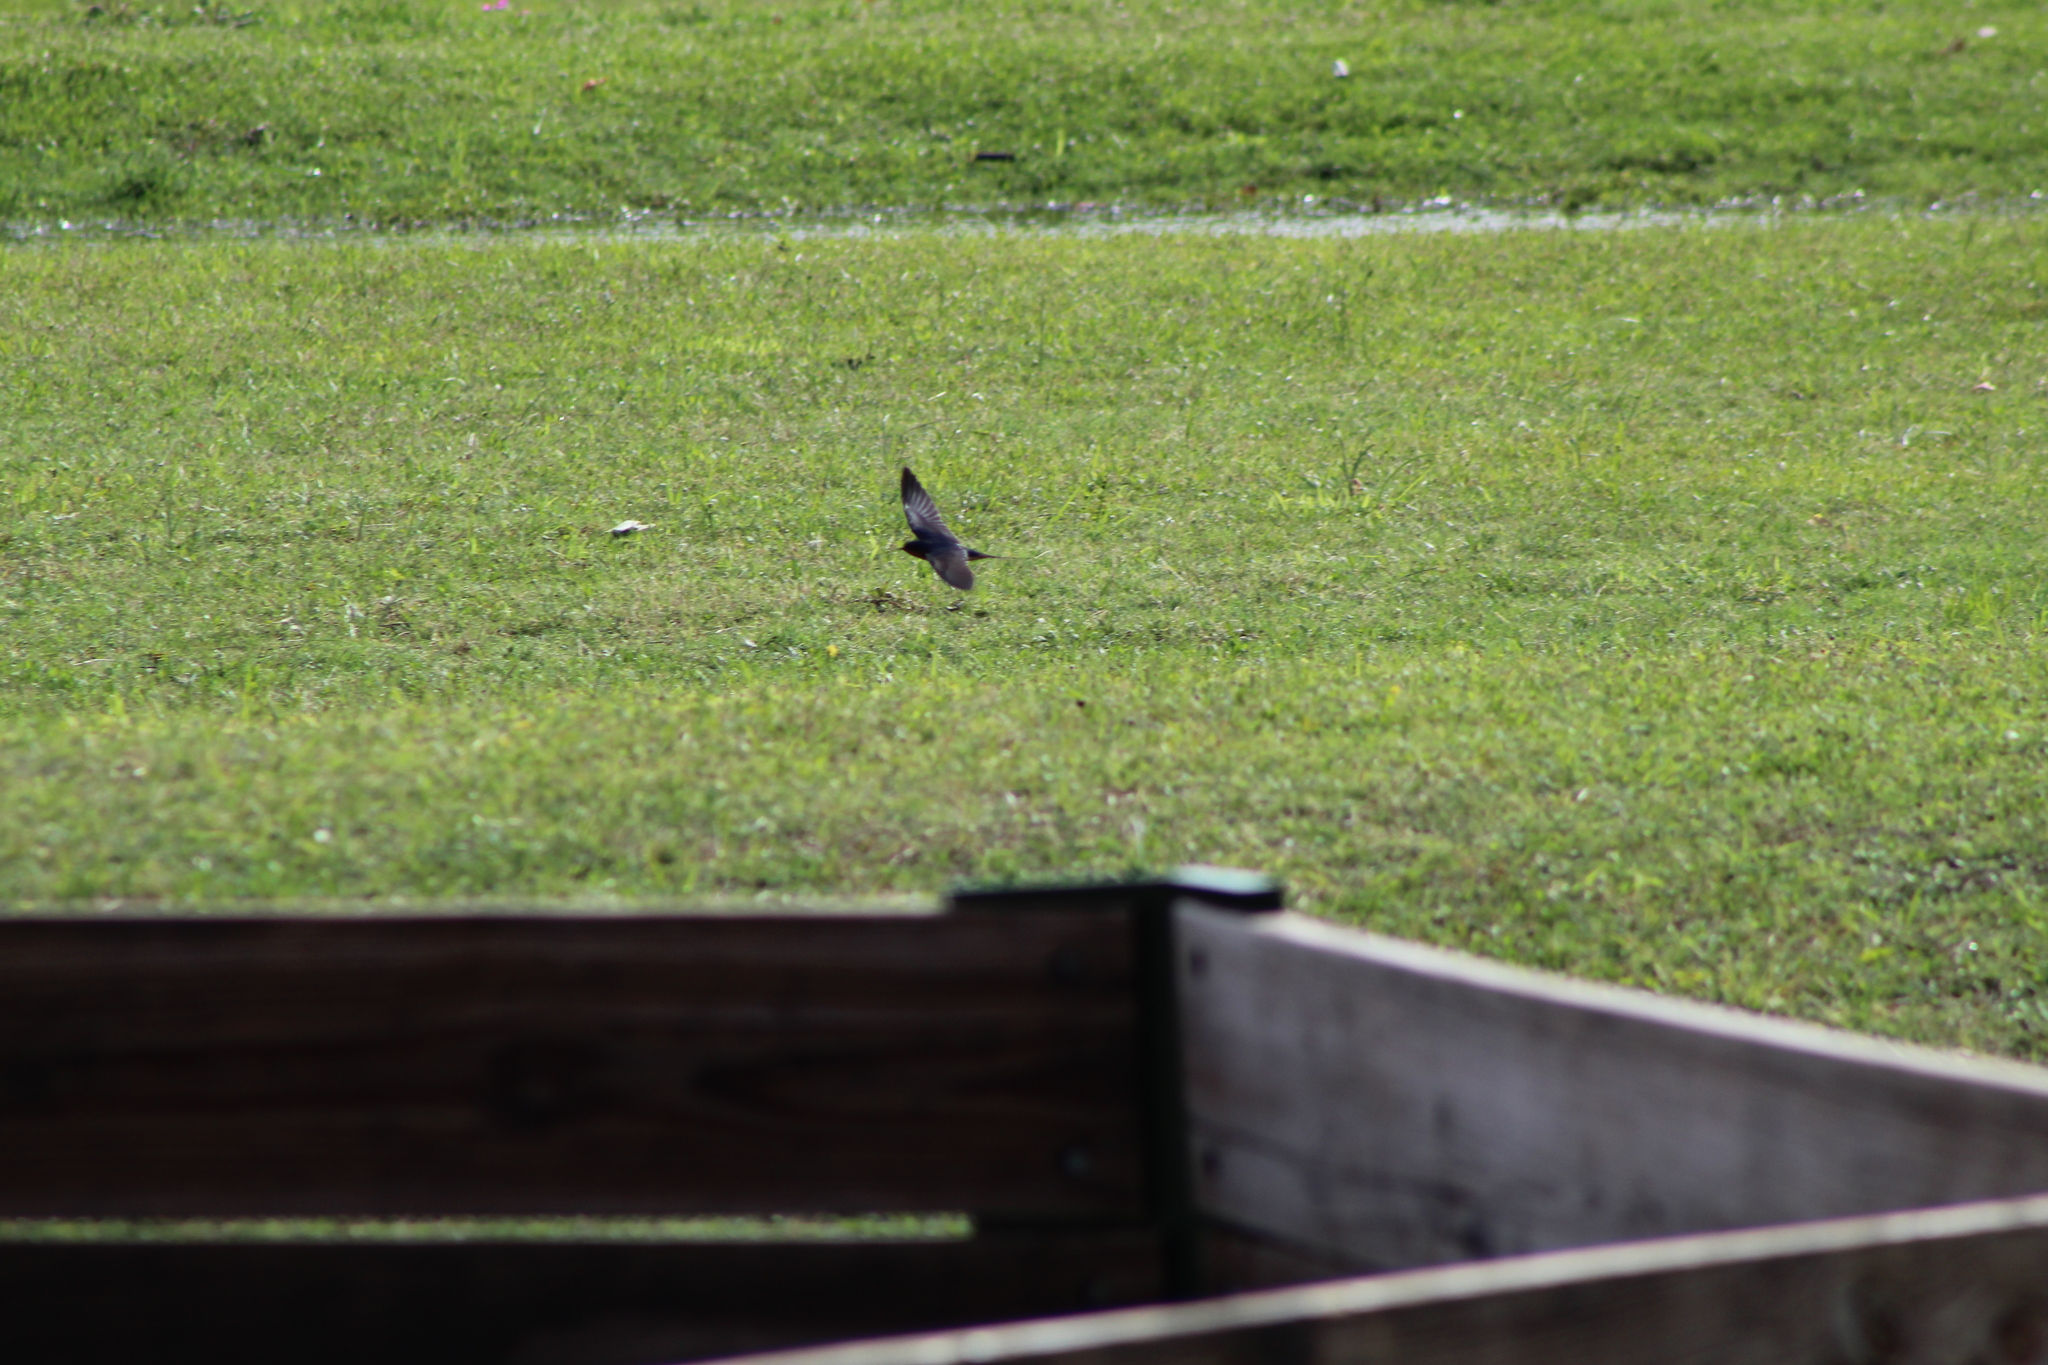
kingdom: Animalia
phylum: Chordata
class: Aves
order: Passeriformes
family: Hirundinidae
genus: Hirundo
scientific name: Hirundo rustica
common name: Barn swallow
